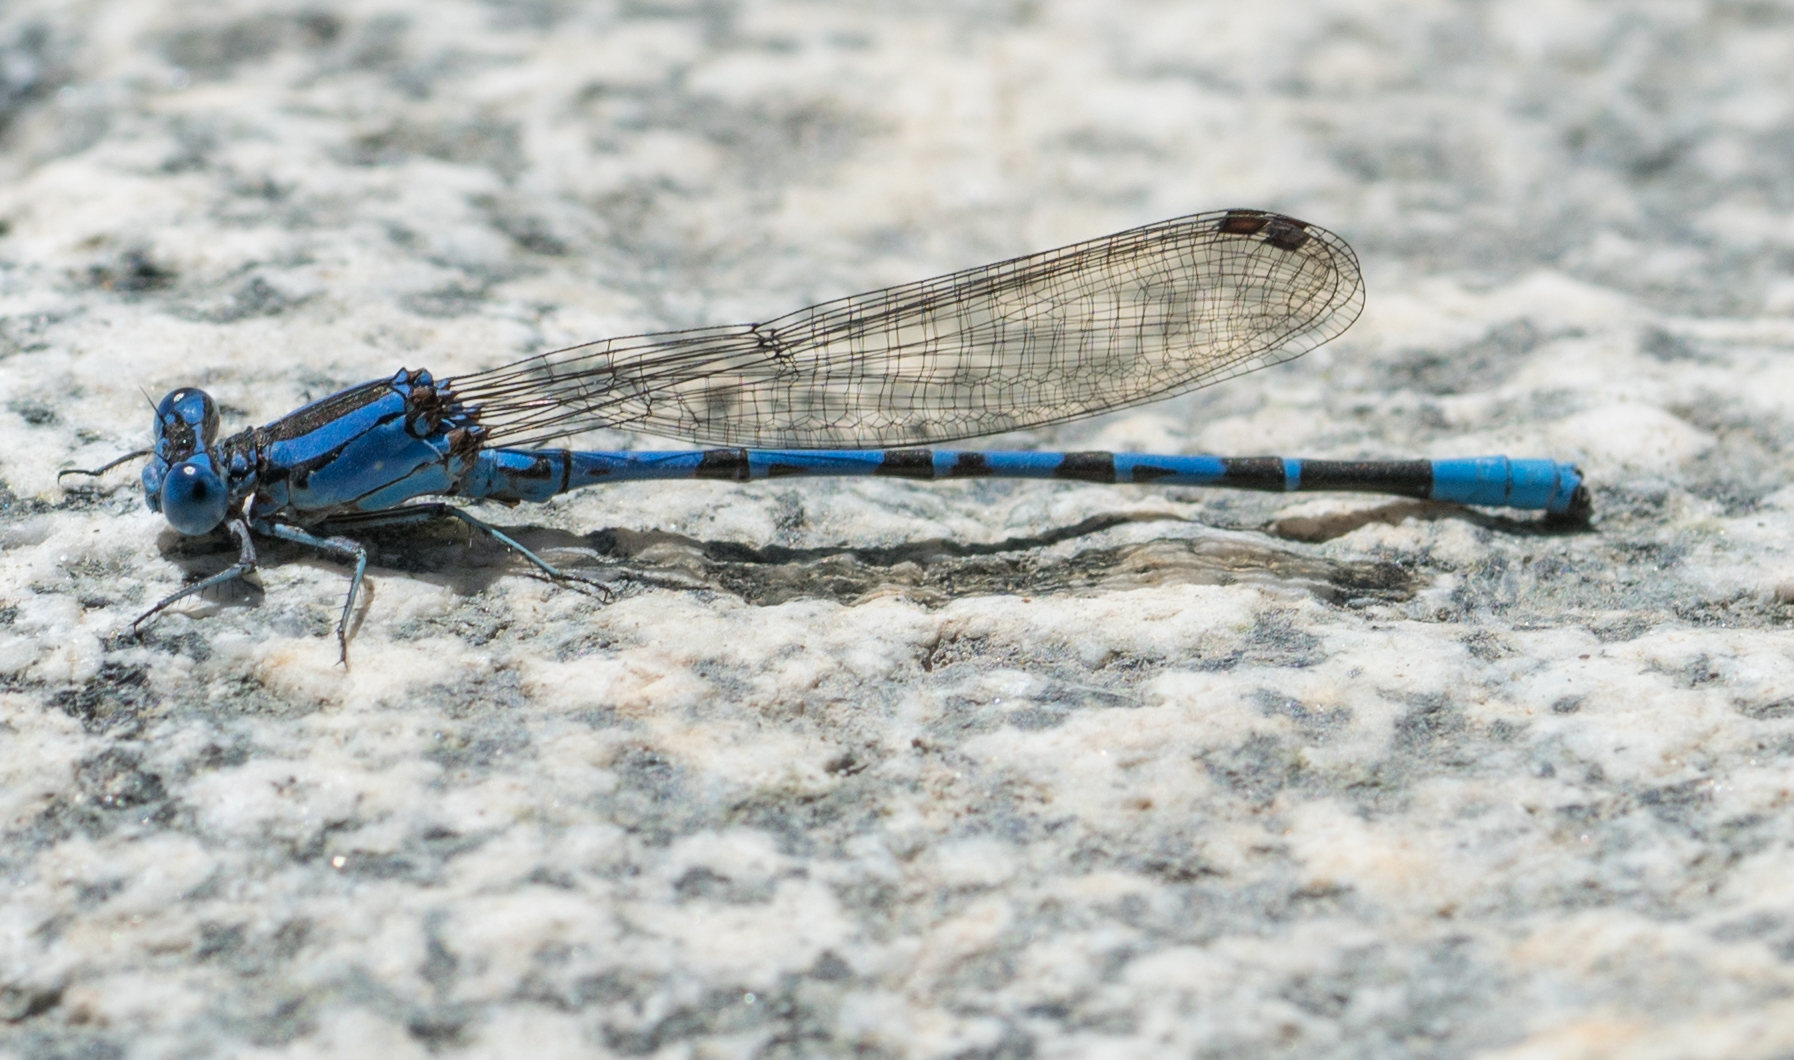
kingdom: Animalia
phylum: Arthropoda
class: Insecta
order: Odonata
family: Coenagrionidae
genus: Argia
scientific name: Argia vivida
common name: Vivid dancer
